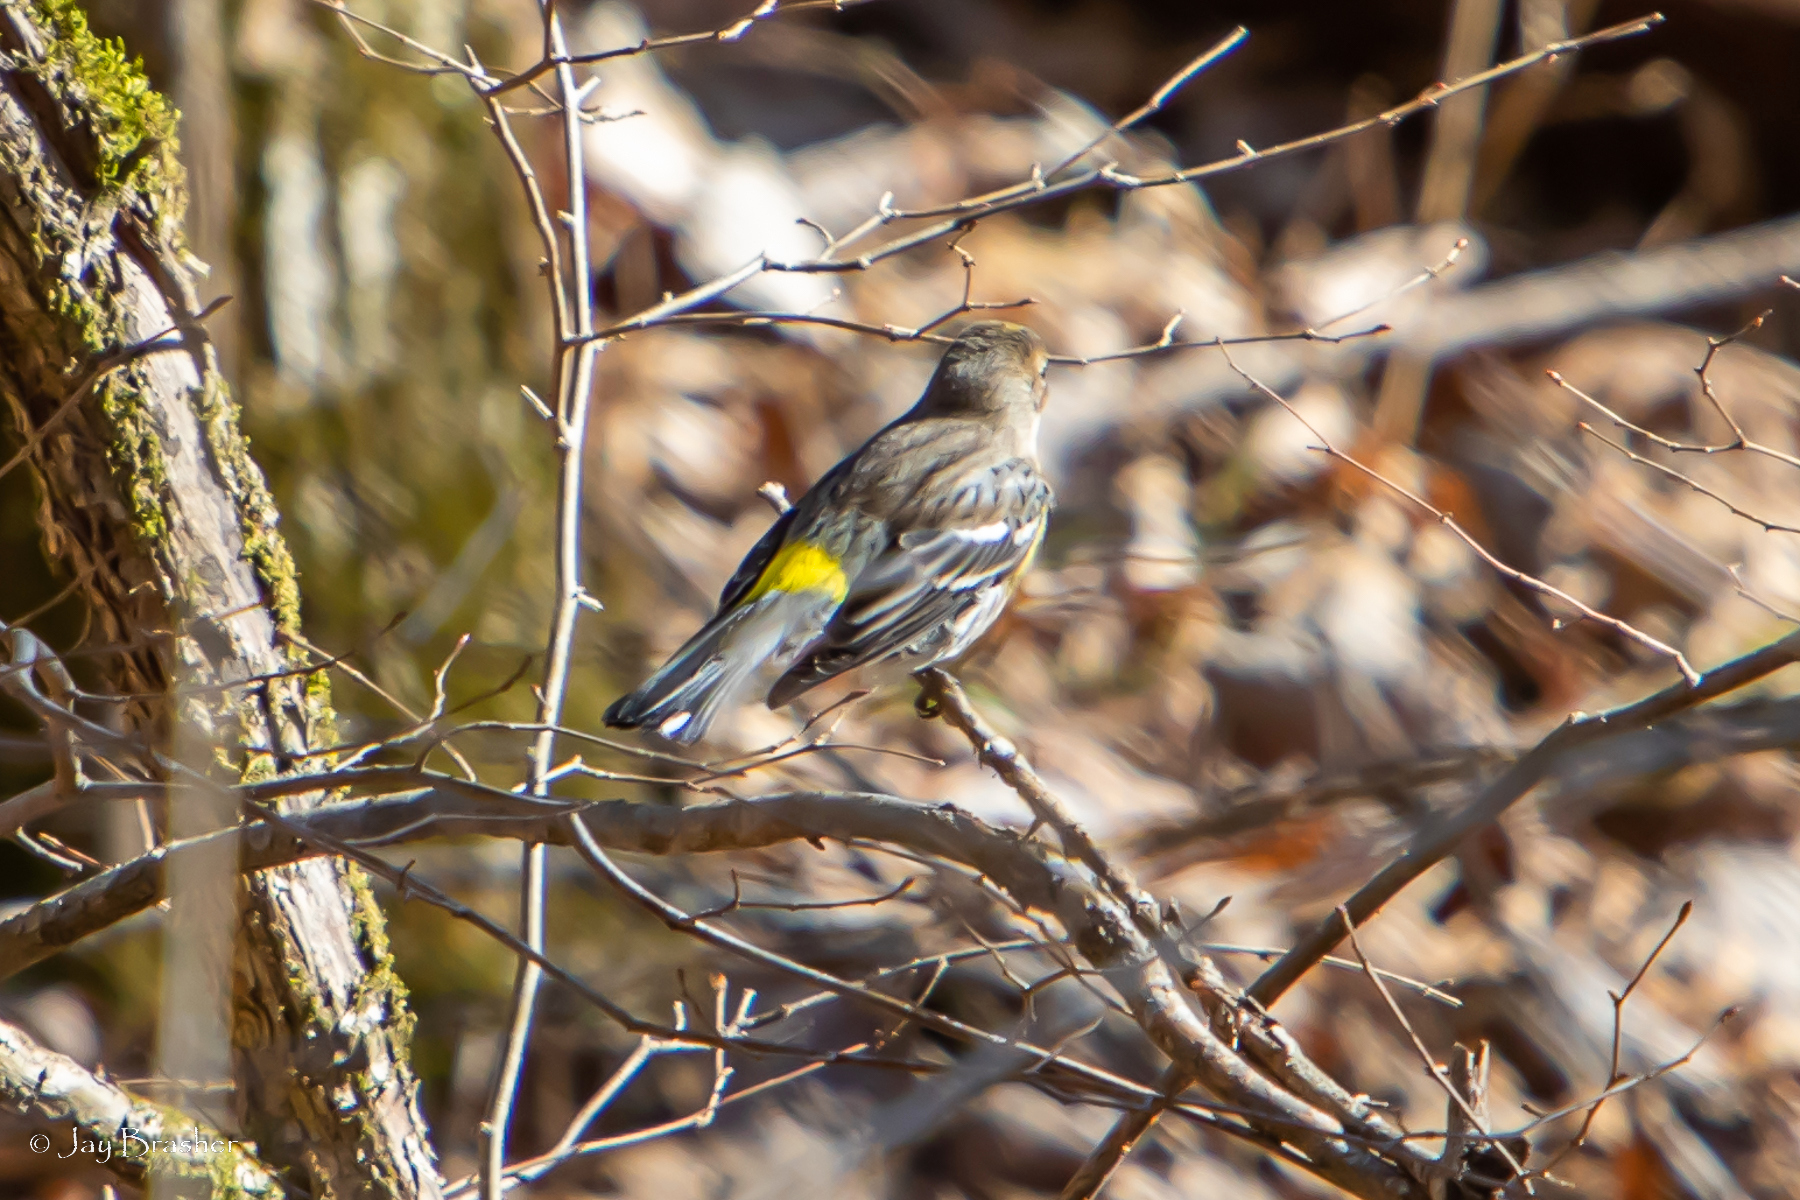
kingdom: Animalia
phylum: Chordata
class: Aves
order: Passeriformes
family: Parulidae
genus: Setophaga
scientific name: Setophaga coronata
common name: Myrtle warbler
